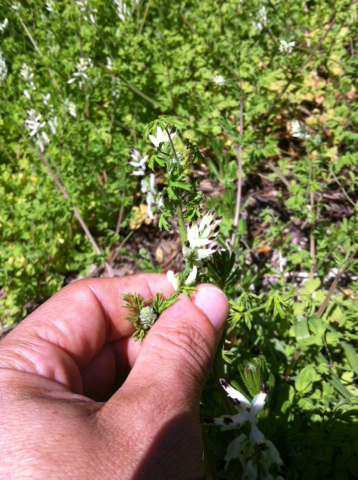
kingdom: Plantae
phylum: Tracheophyta
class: Magnoliopsida
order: Ranunculales
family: Papaveraceae
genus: Fumaria
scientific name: Fumaria capreolata
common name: White ramping-fumitory
